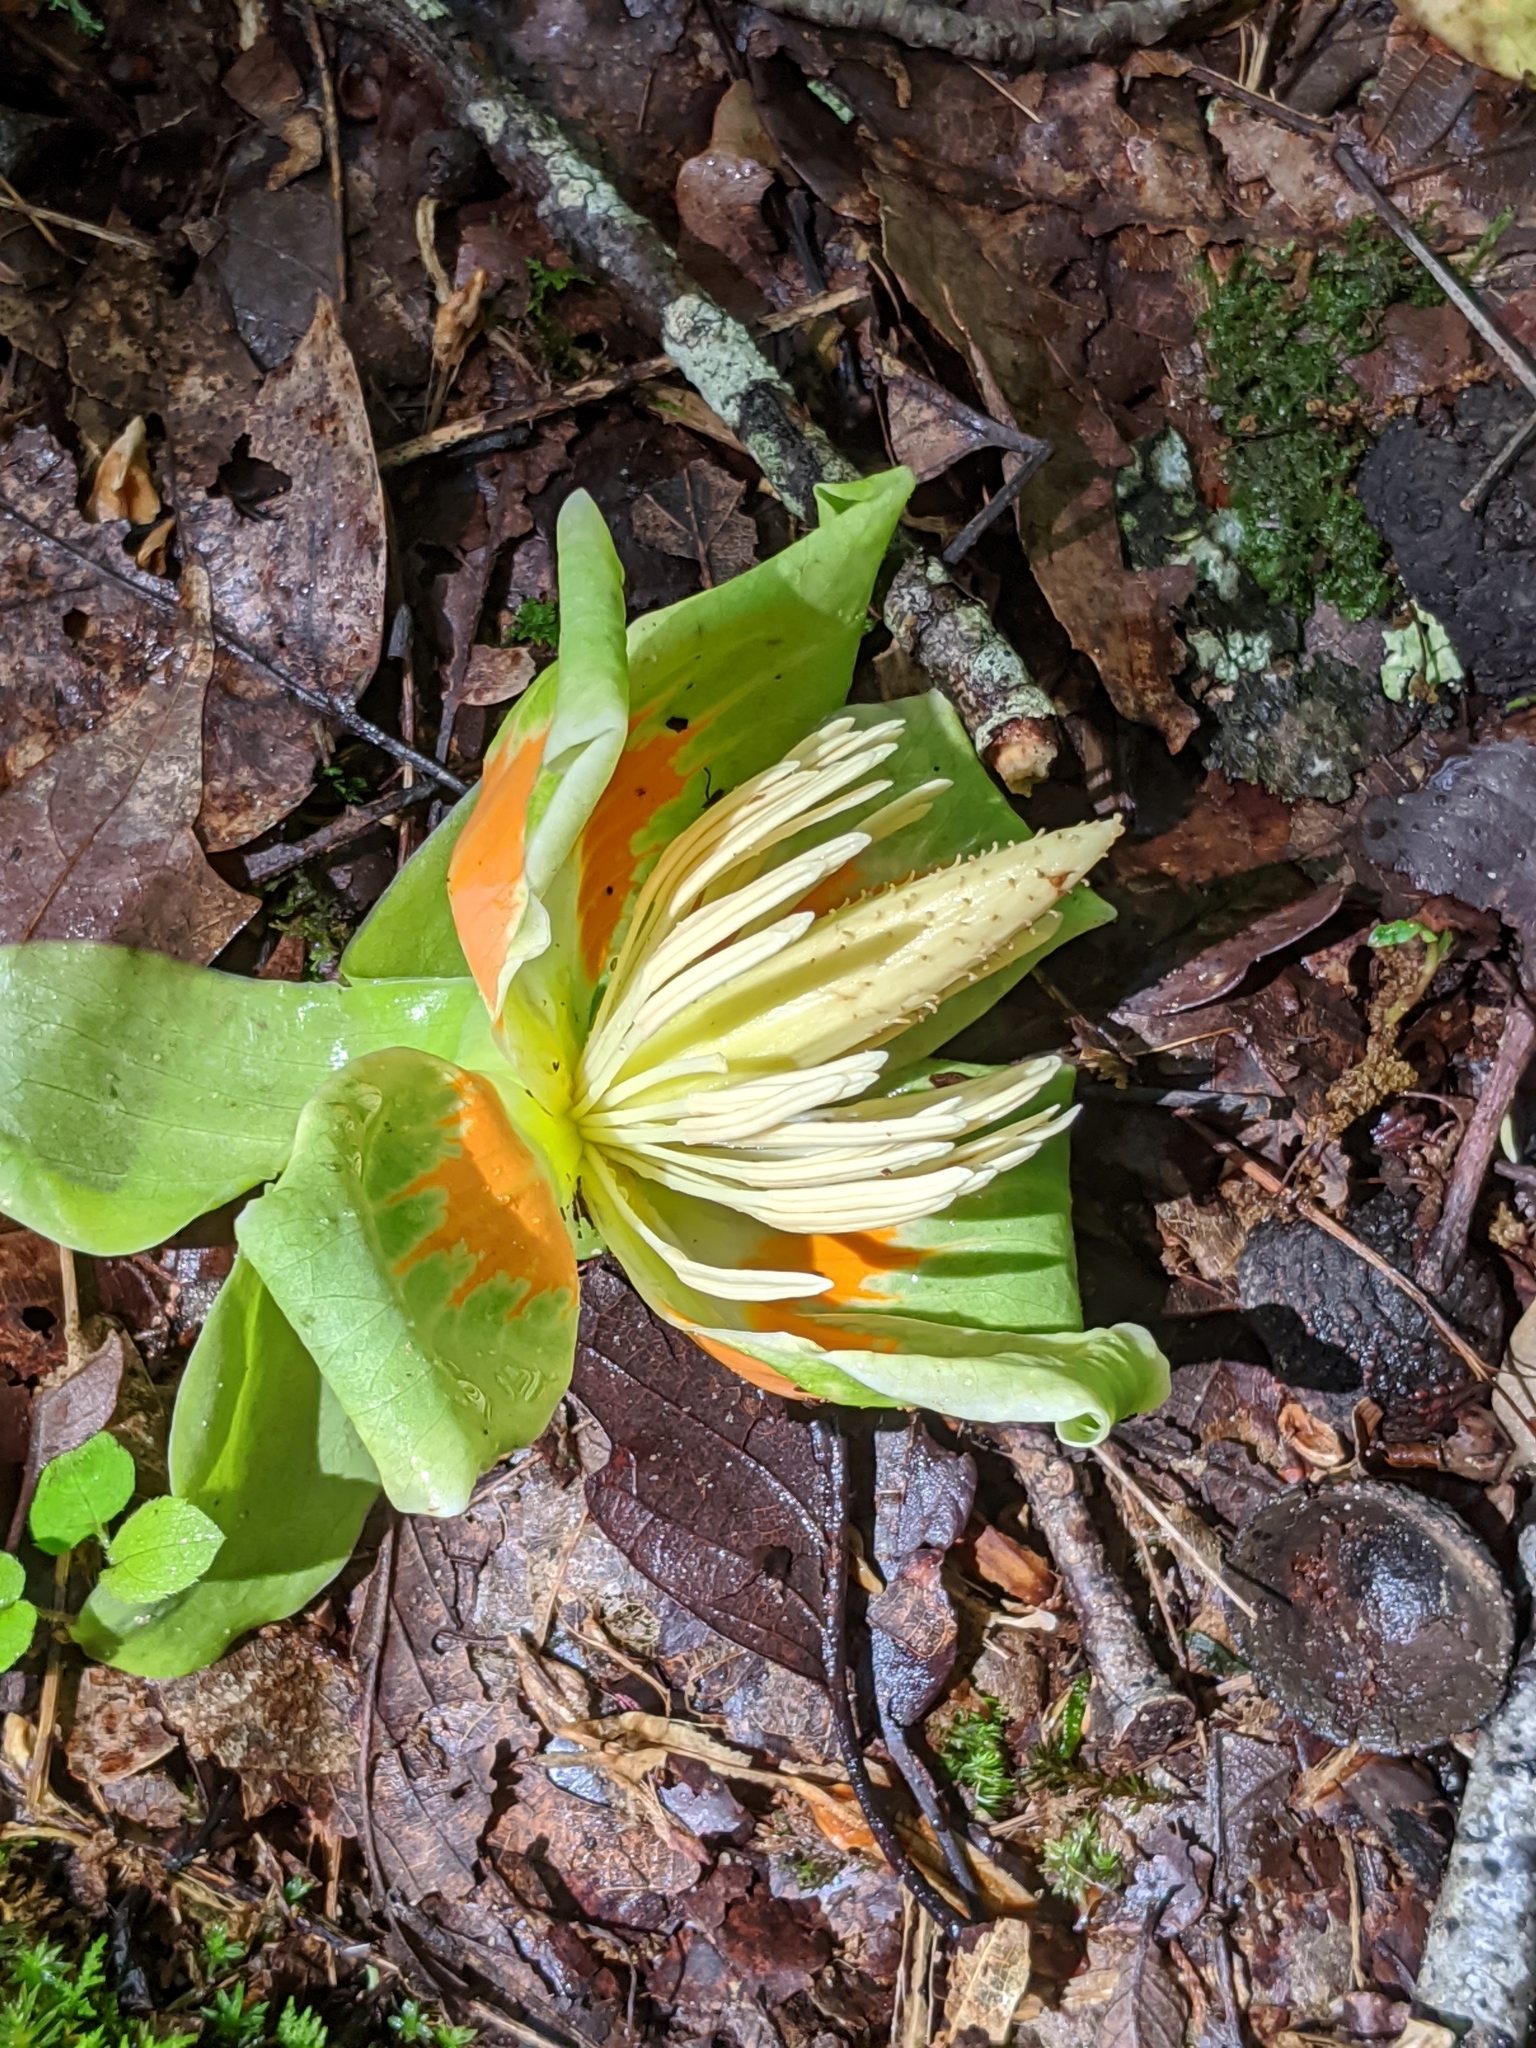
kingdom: Plantae
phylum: Tracheophyta
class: Magnoliopsida
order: Magnoliales
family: Magnoliaceae
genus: Liriodendron
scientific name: Liriodendron tulipifera
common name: Tulip tree
